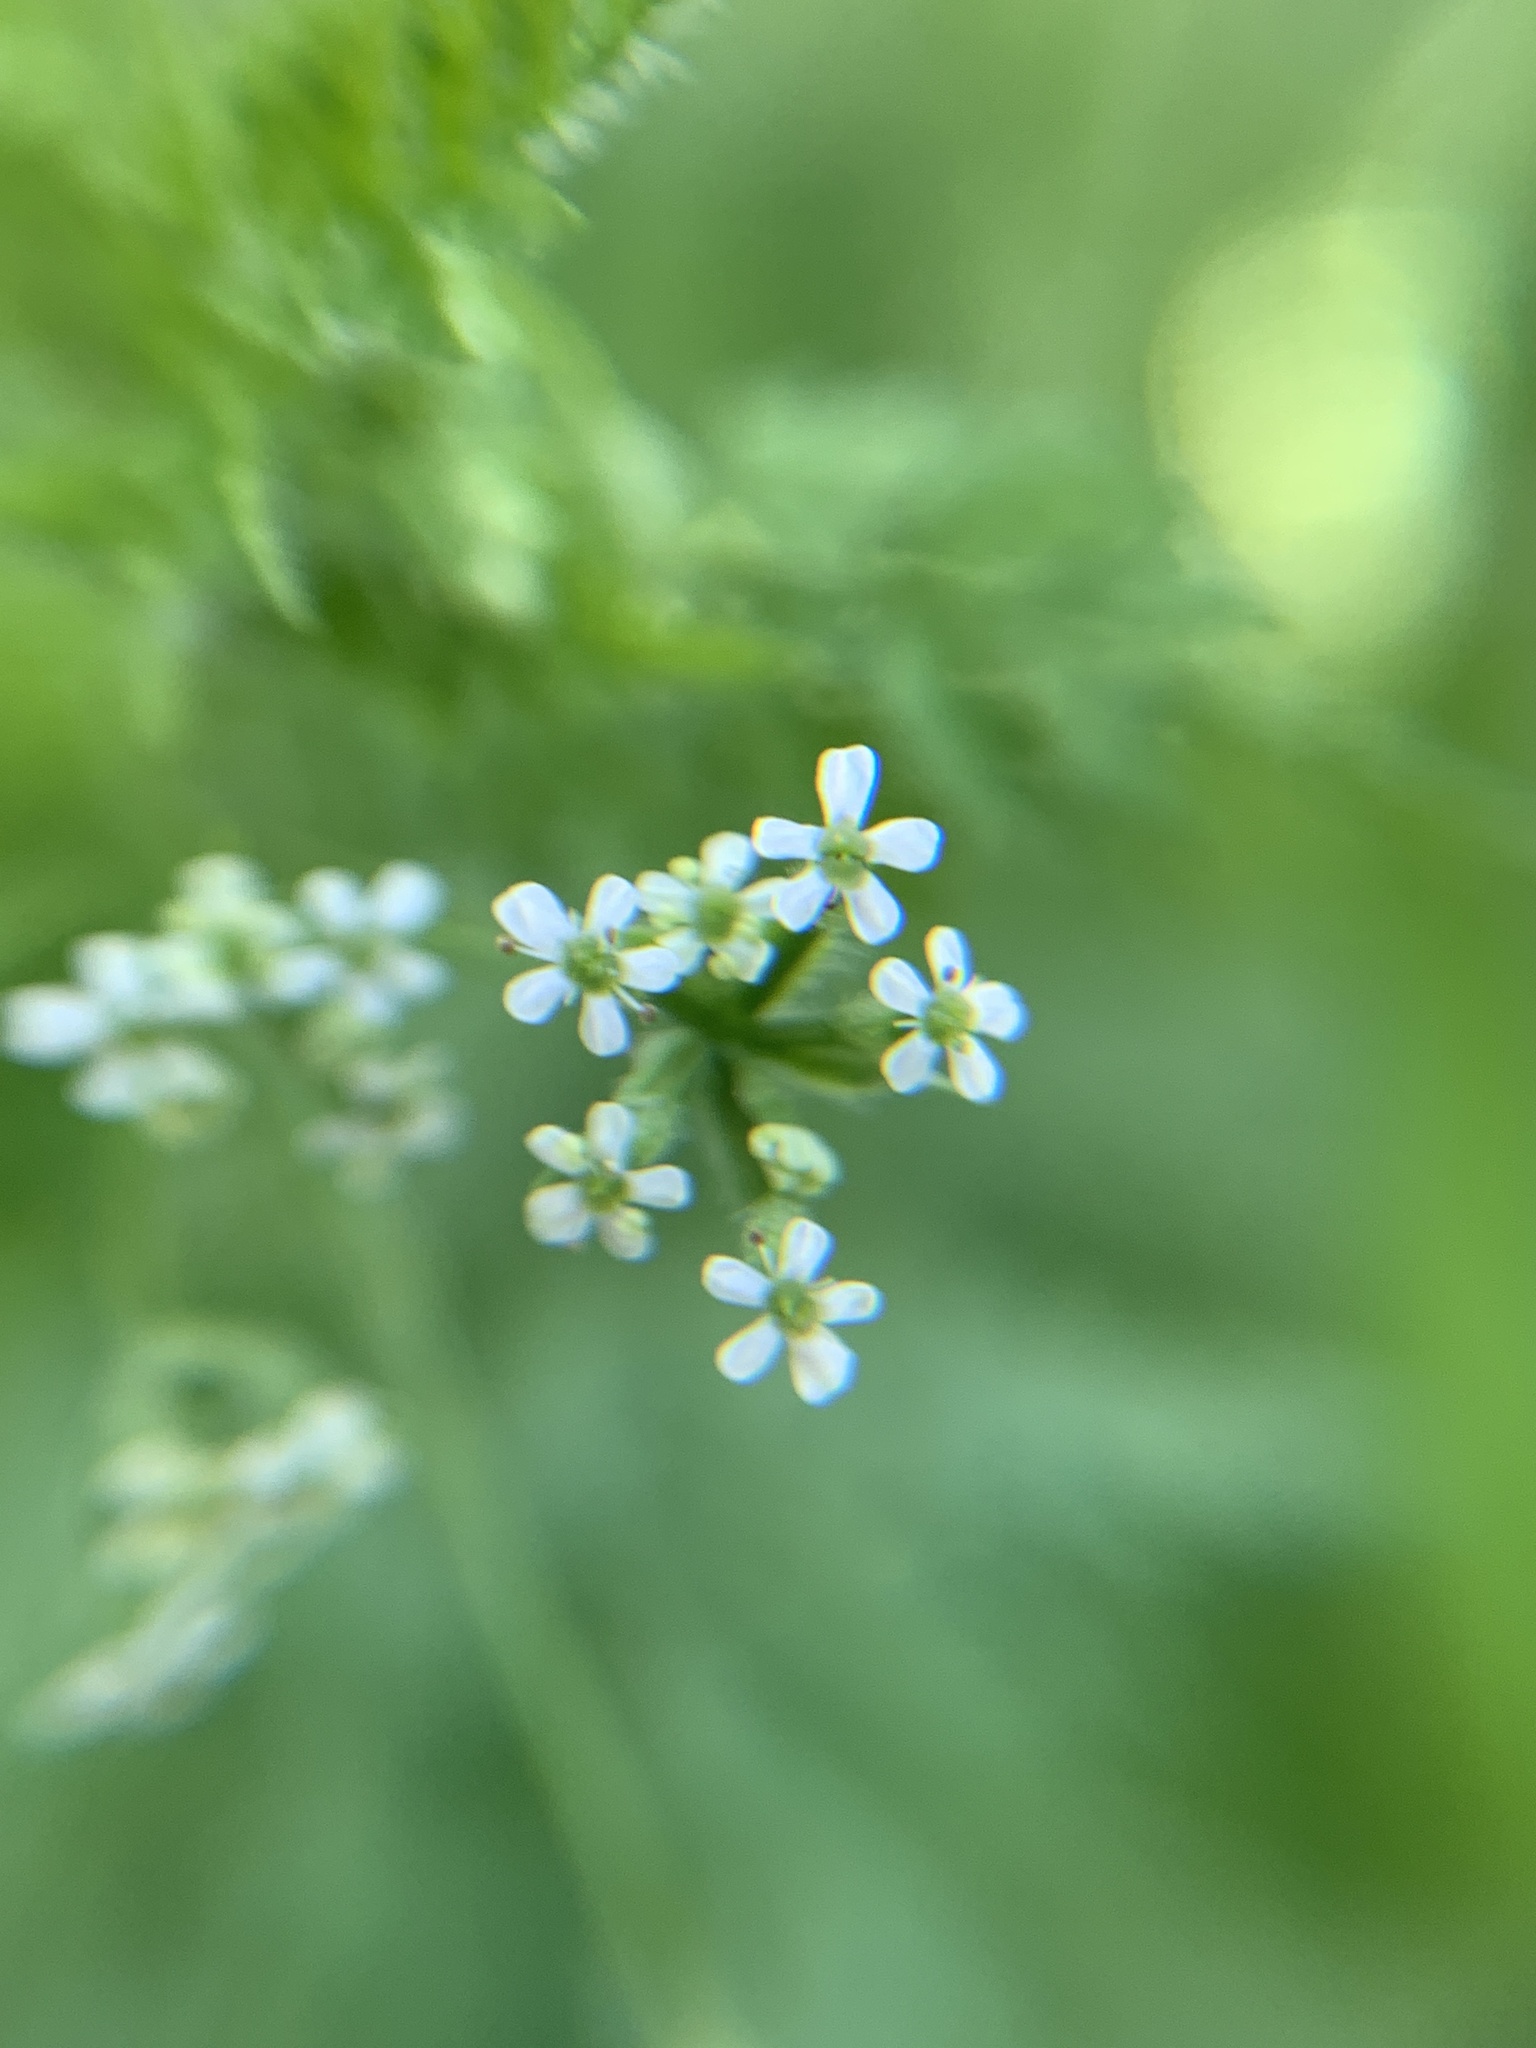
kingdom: Plantae
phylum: Tracheophyta
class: Magnoliopsida
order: Apiales
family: Apiaceae
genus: Anthriscus
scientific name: Anthriscus caucalis
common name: Bur chervil
